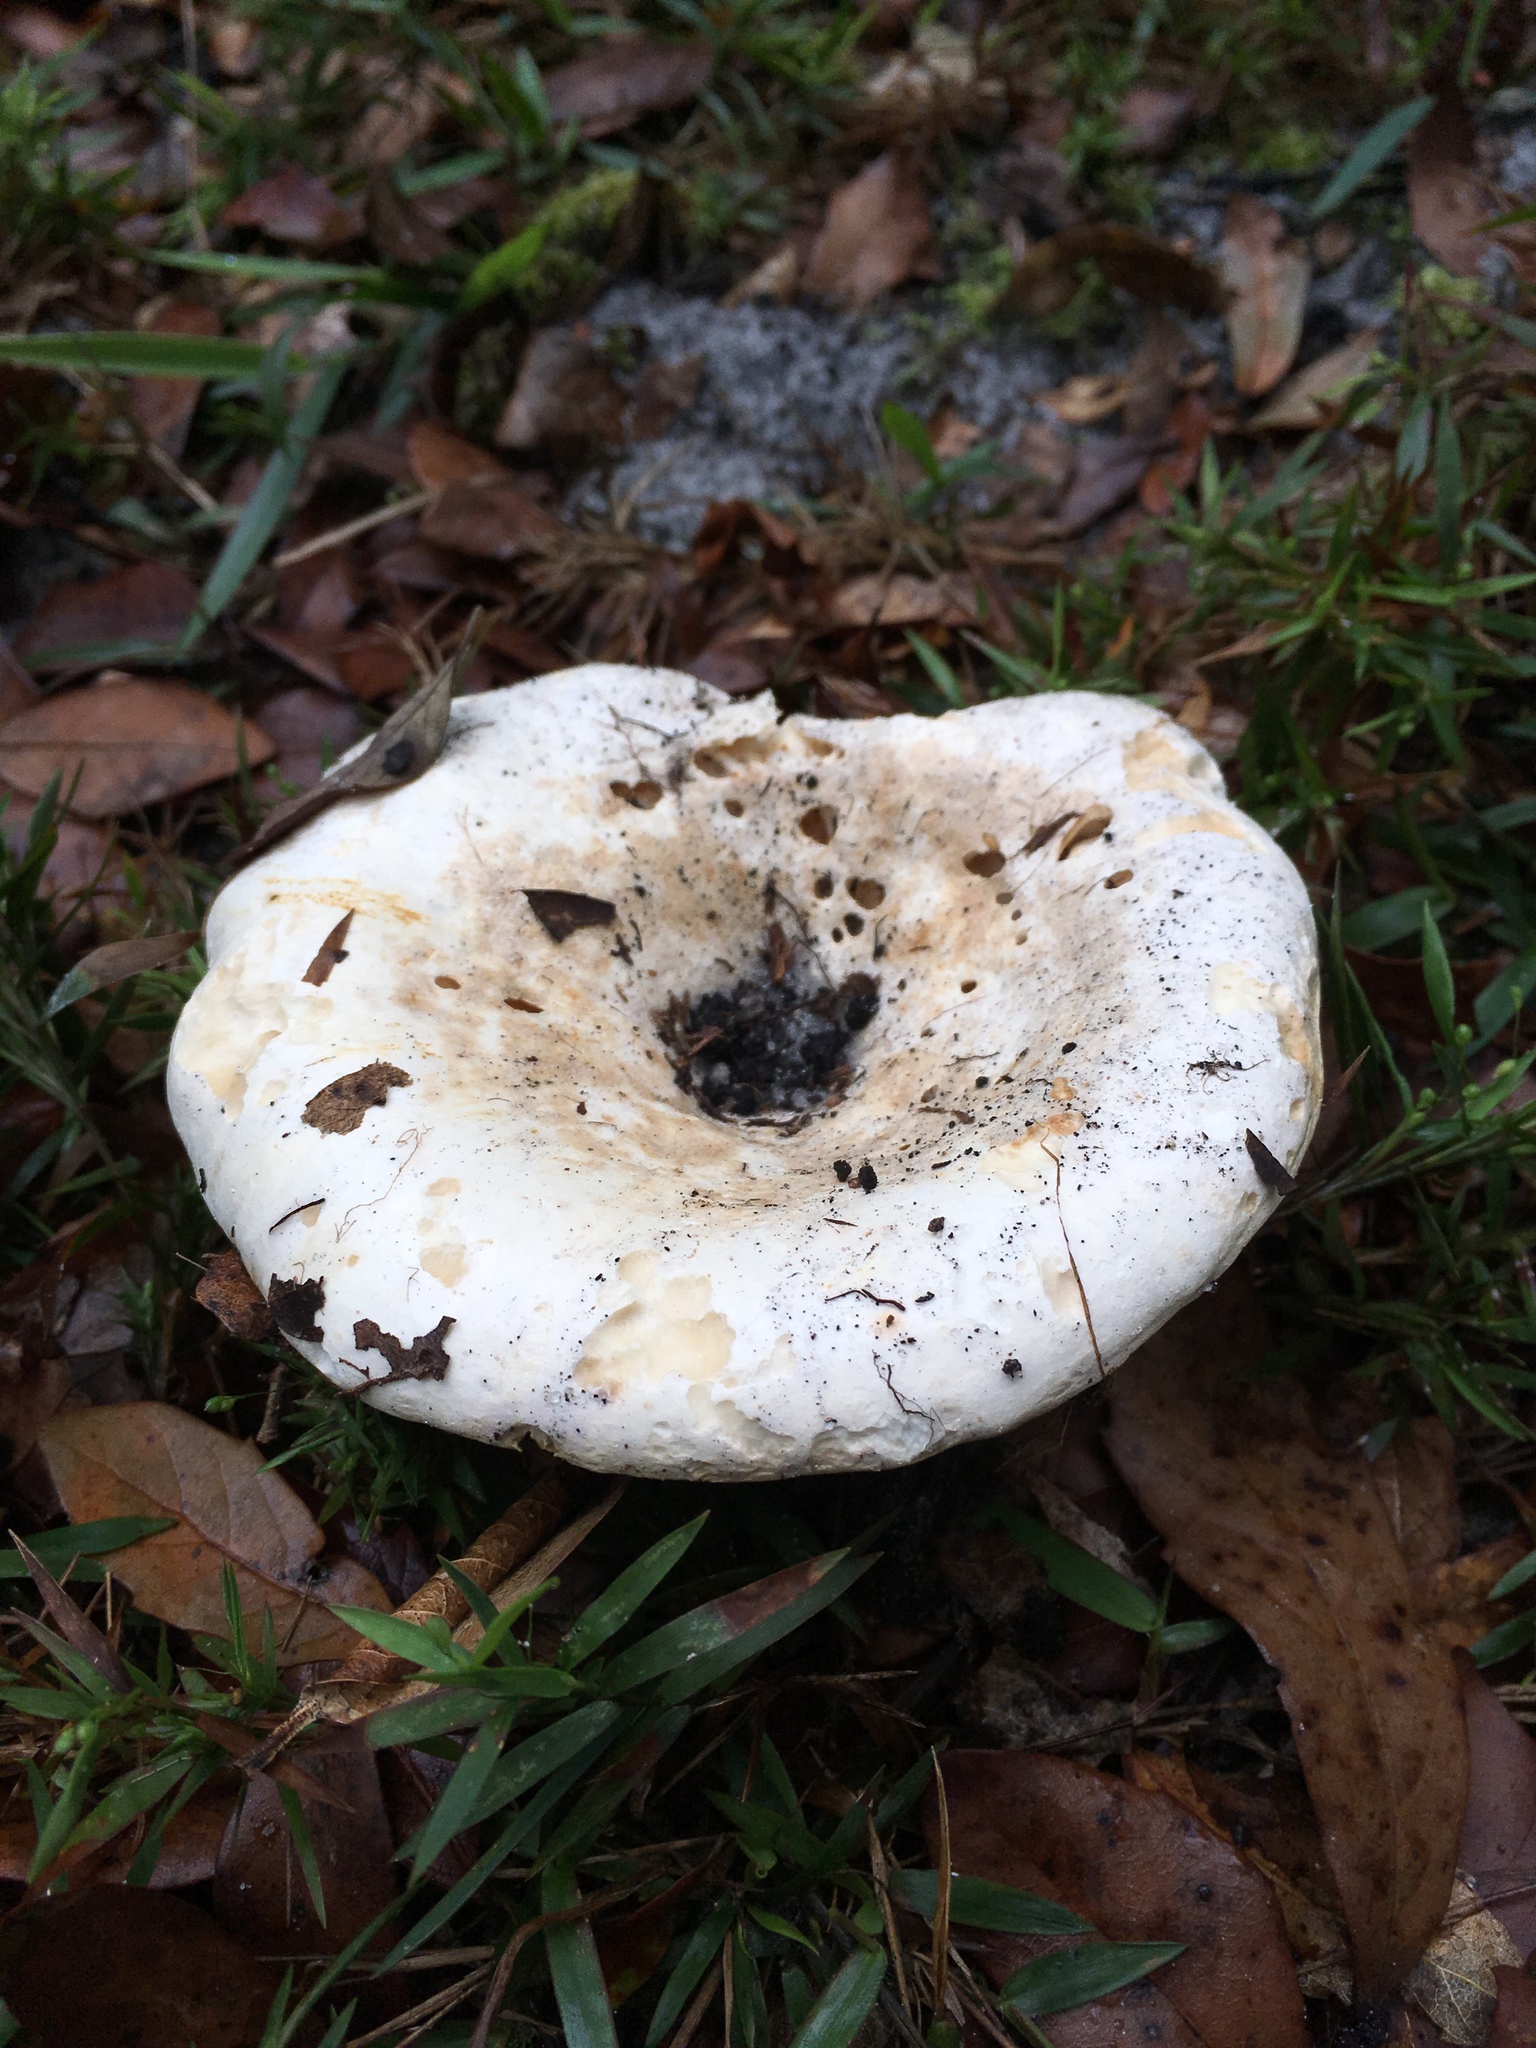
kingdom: Fungi
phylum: Basidiomycota
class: Agaricomycetes
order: Russulales
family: Russulaceae
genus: Russula
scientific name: Russula brevipes
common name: Short-stemmed russula
